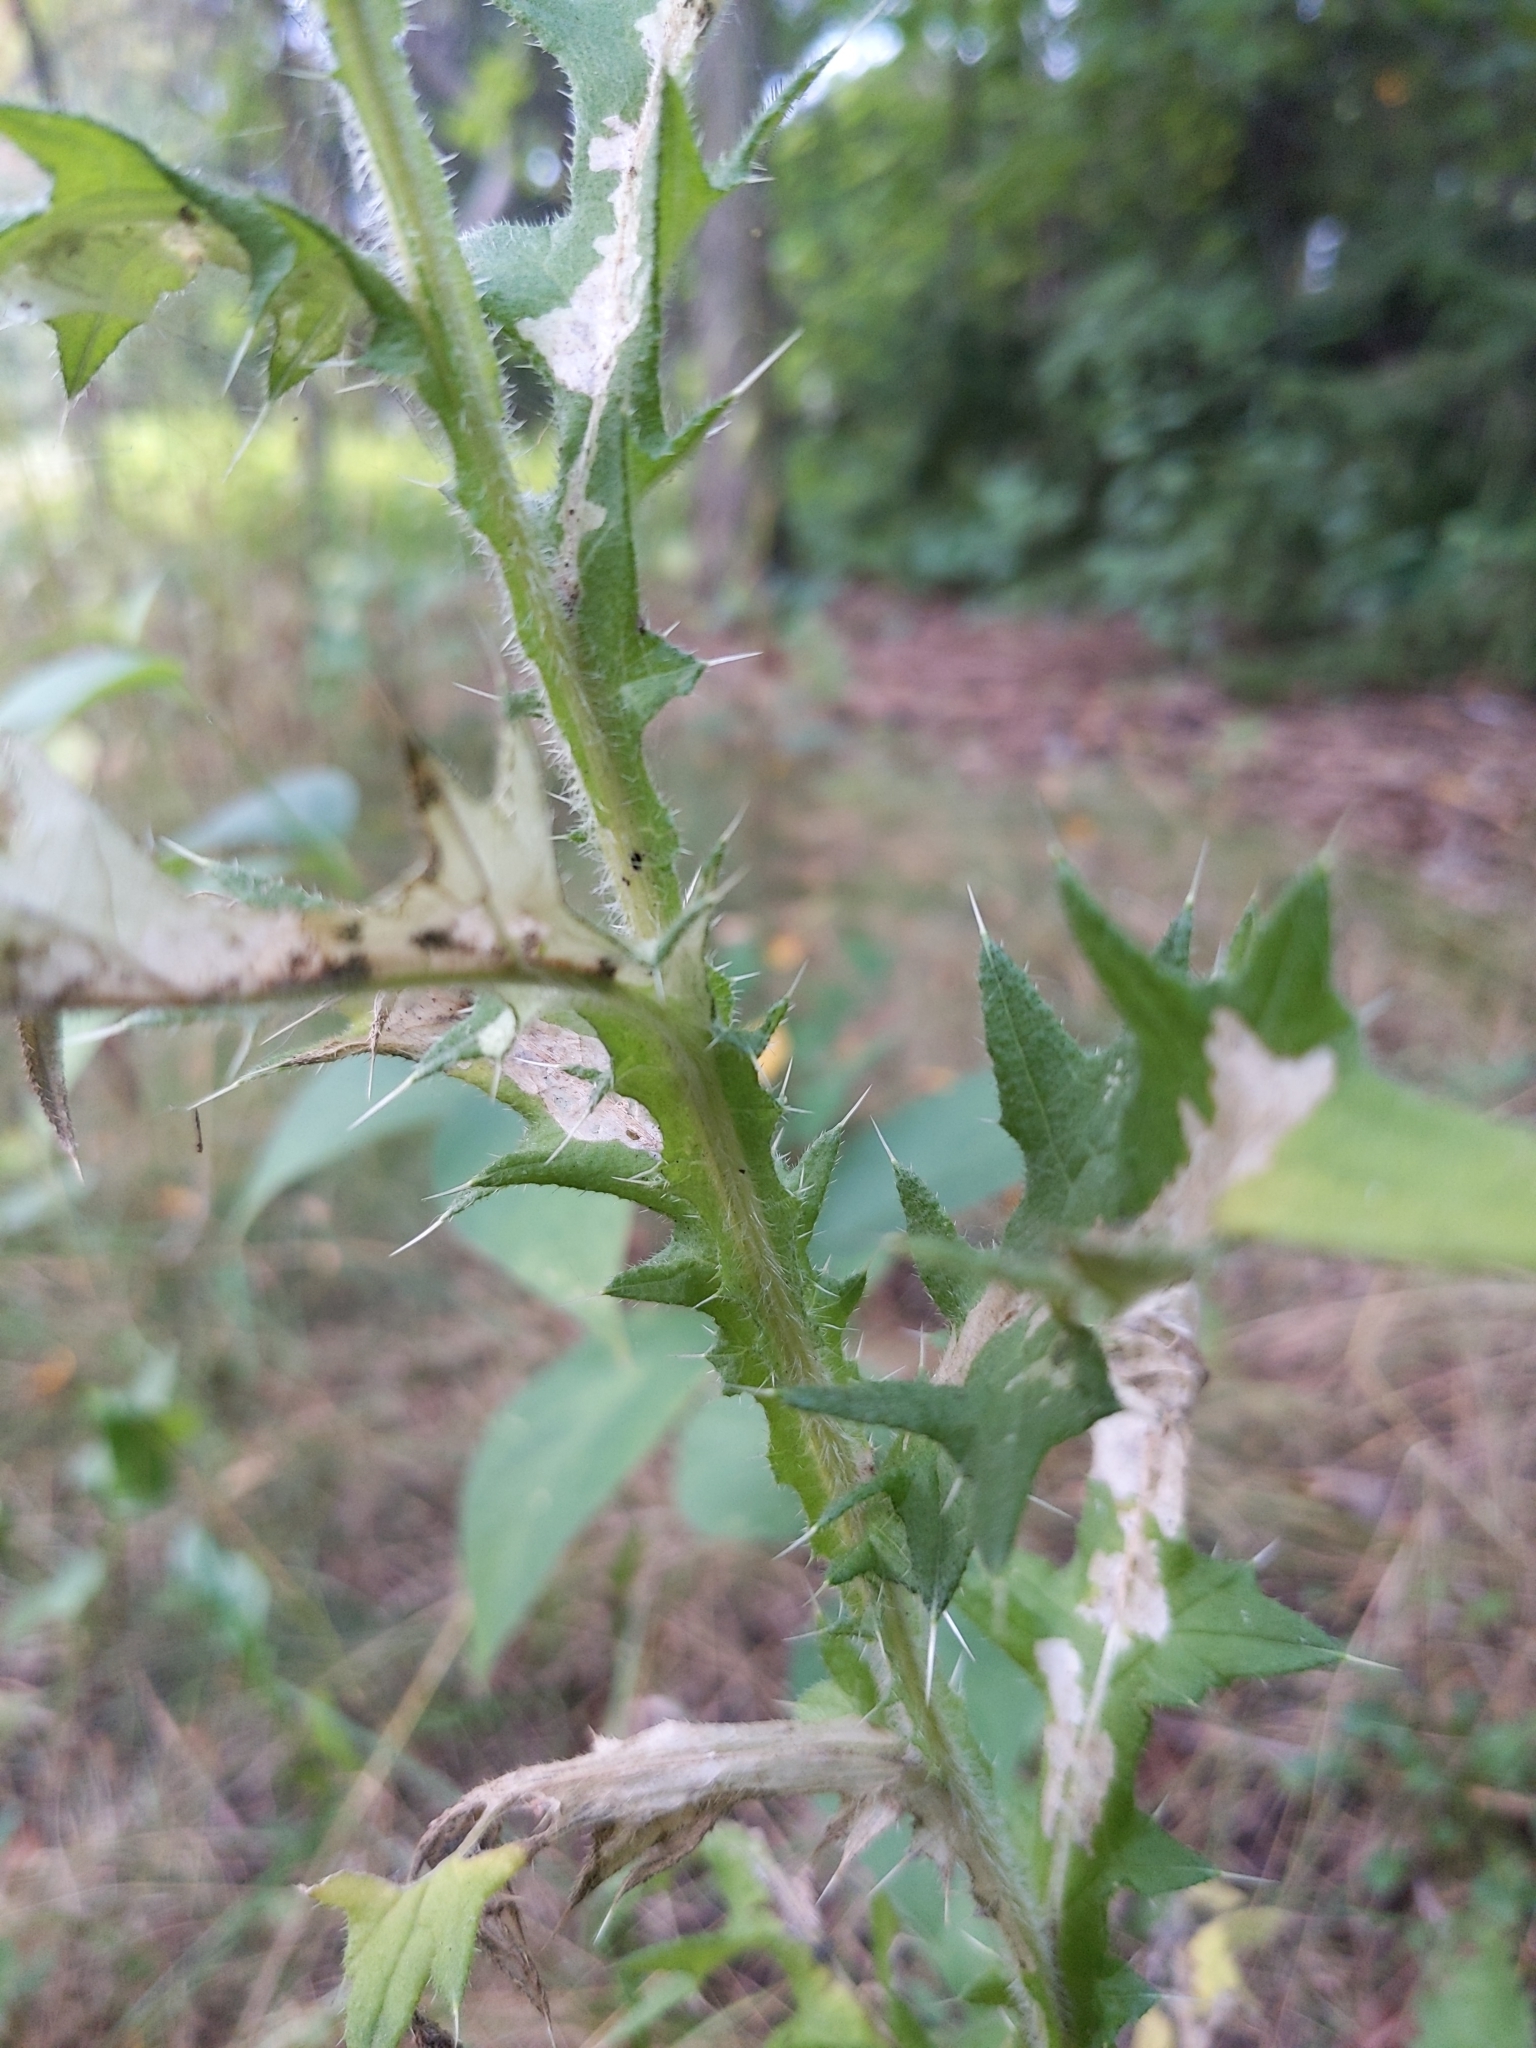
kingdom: Plantae
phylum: Tracheophyta
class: Magnoliopsida
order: Asterales
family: Asteraceae
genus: Cirsium
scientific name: Cirsium vulgare
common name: Bull thistle
